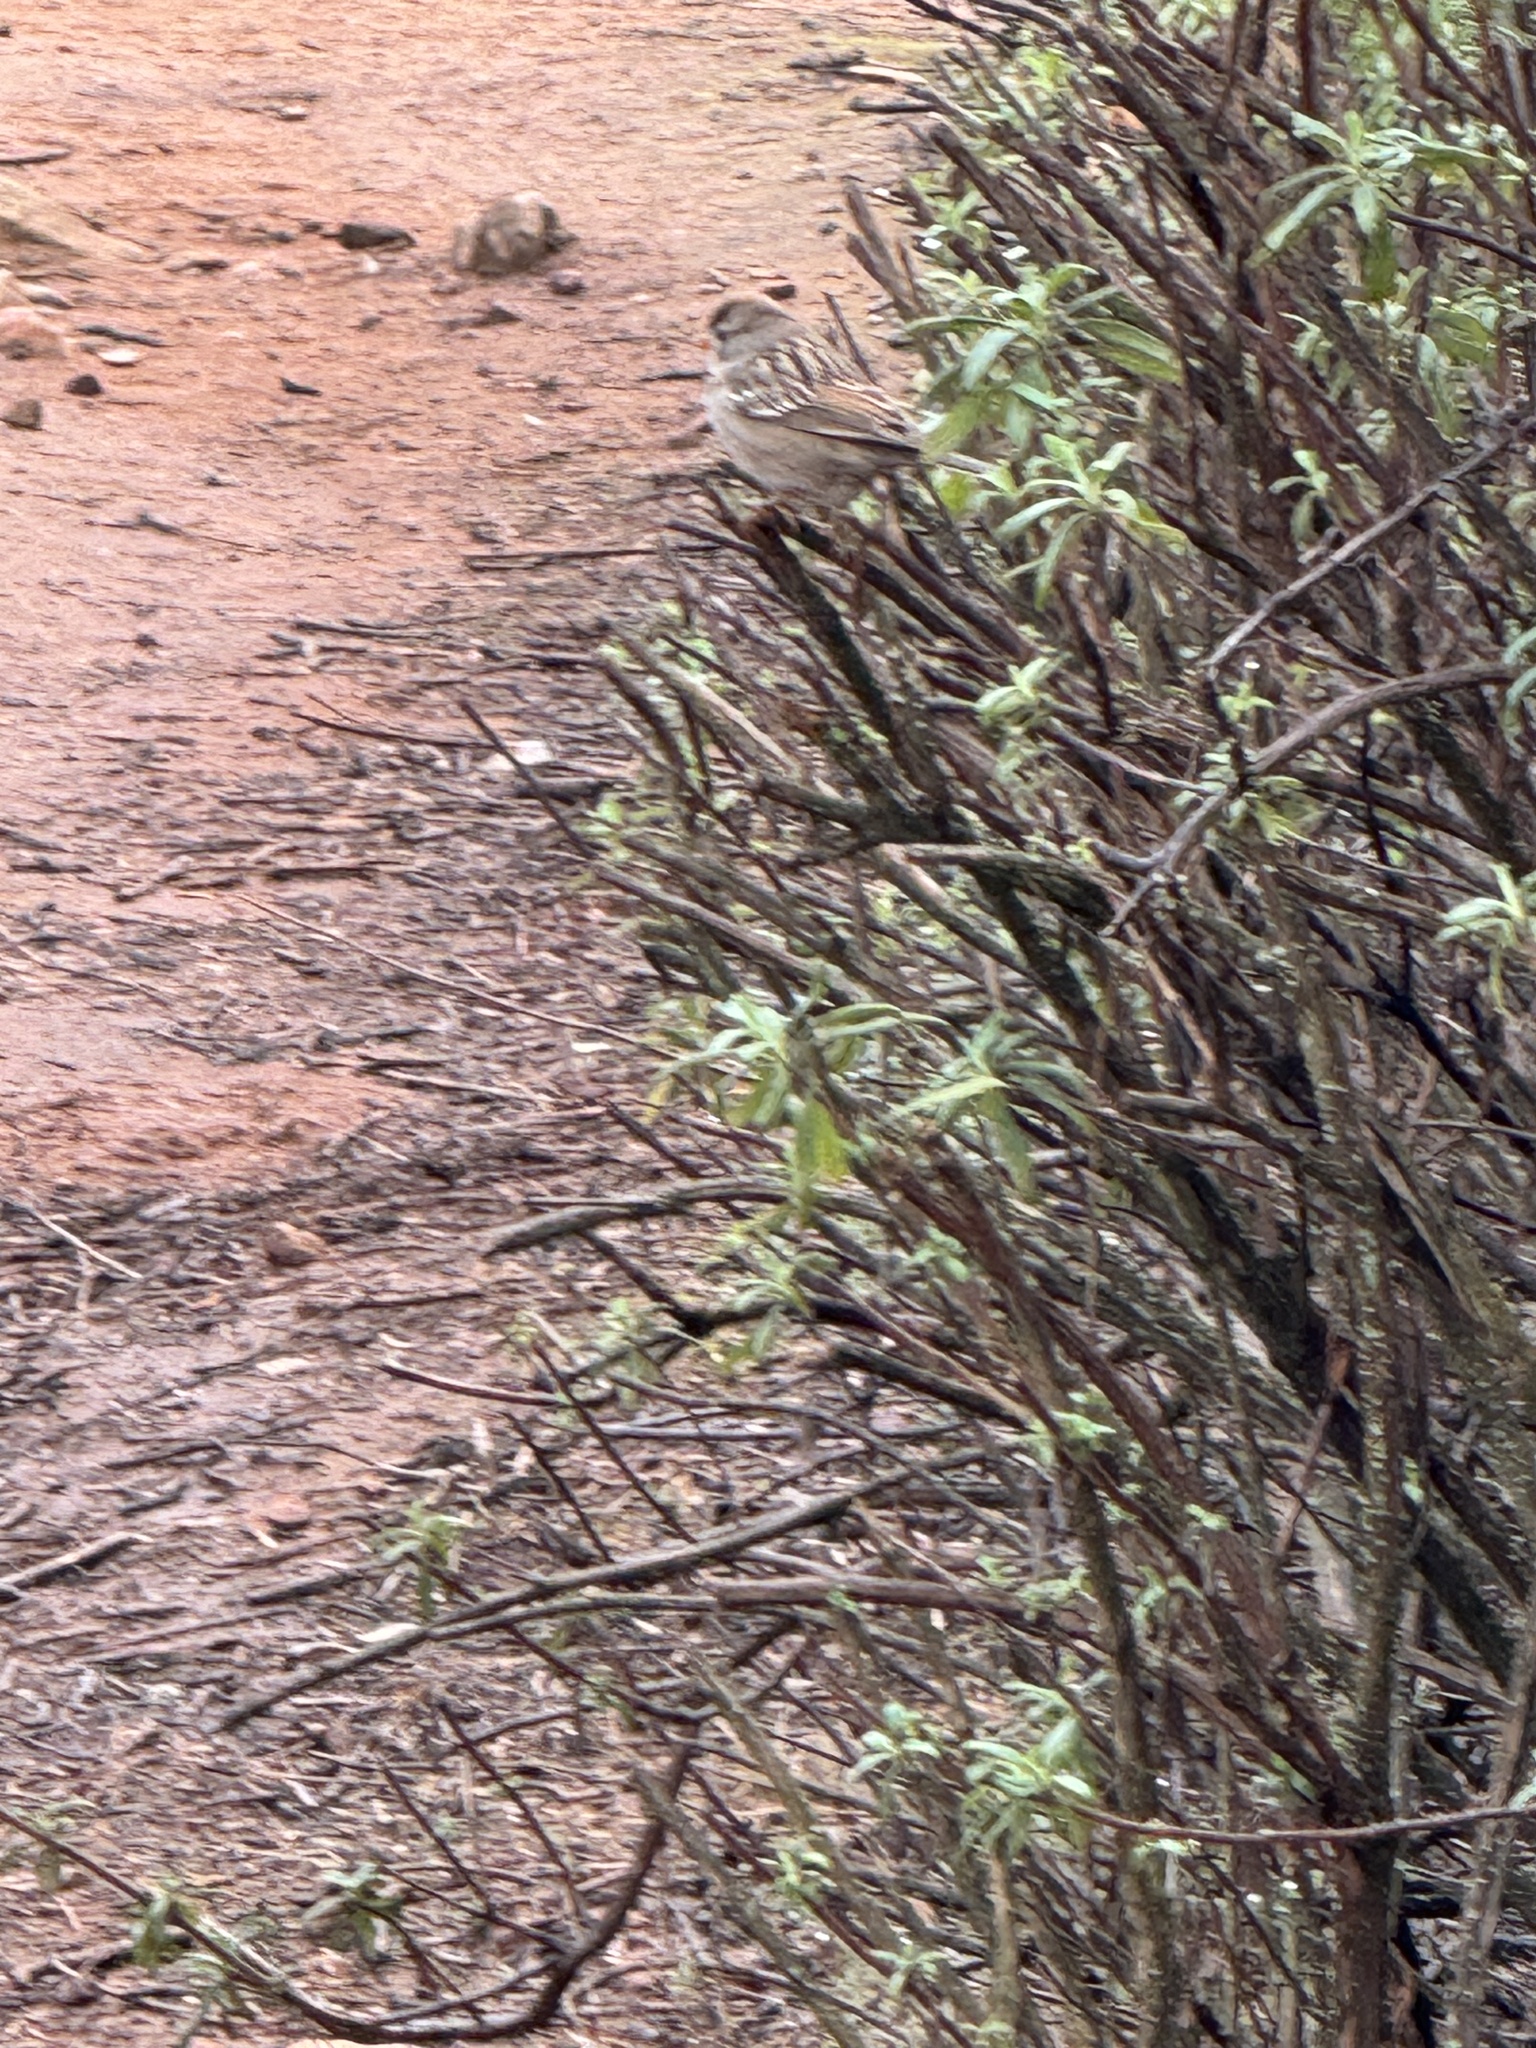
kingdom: Animalia
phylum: Chordata
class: Aves
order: Passeriformes
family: Passerellidae
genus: Zonotrichia
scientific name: Zonotrichia leucophrys
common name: White-crowned sparrow
